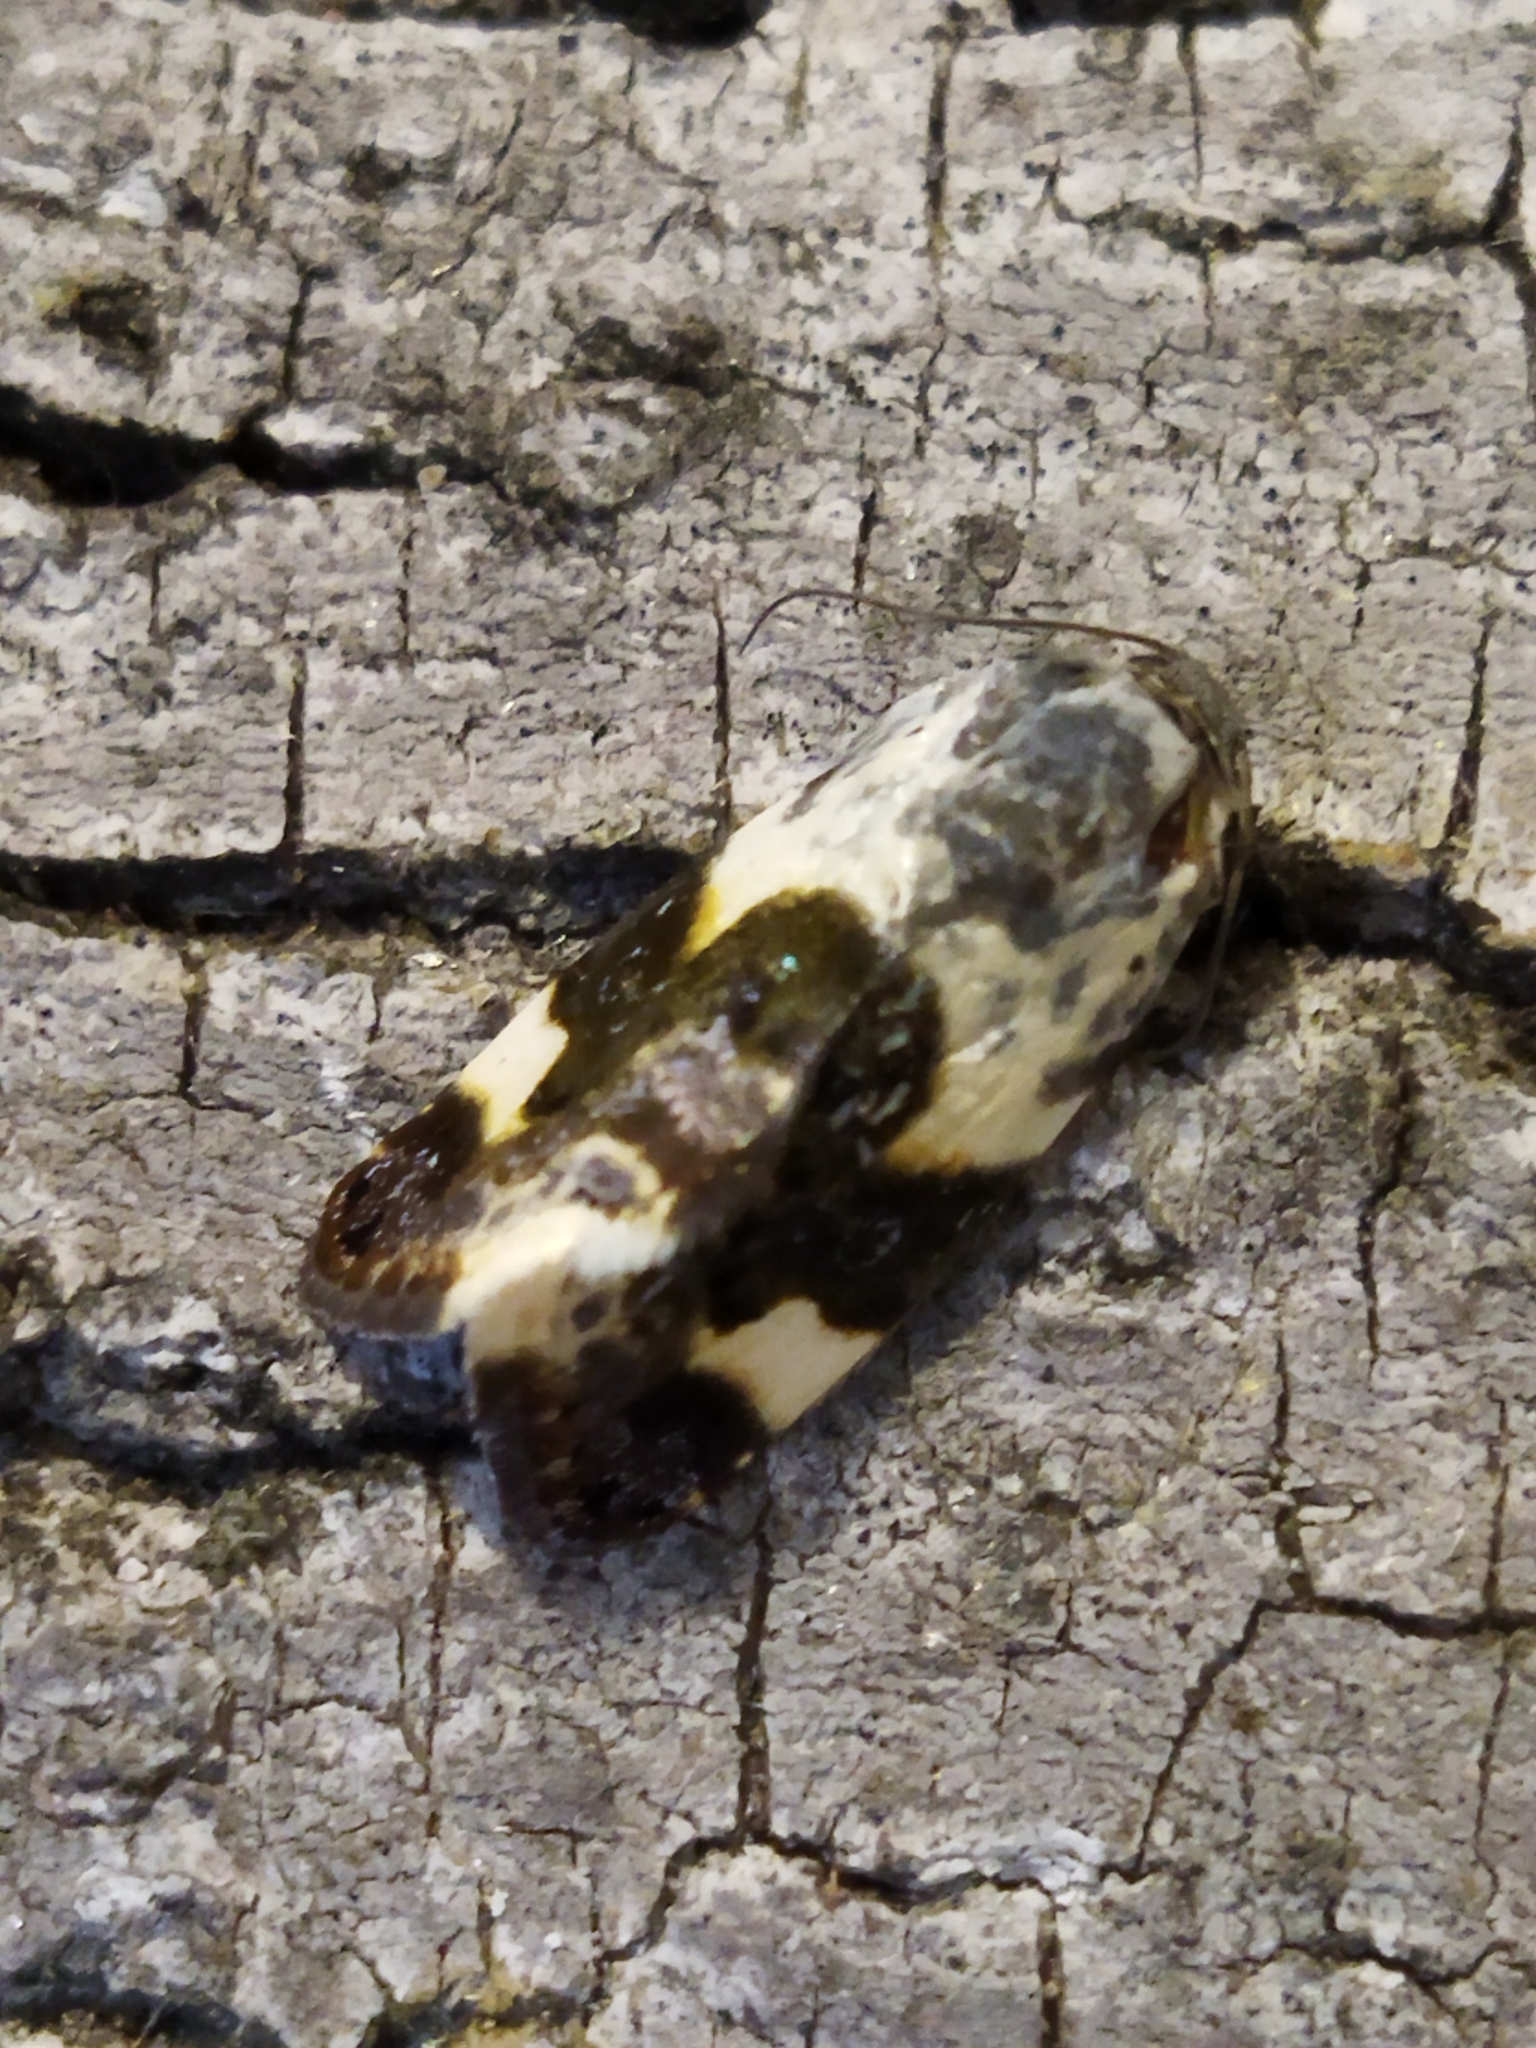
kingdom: Animalia
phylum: Arthropoda
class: Insecta
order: Lepidoptera
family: Noctuidae
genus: Acontia
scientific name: Acontia lucida
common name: Pale shoulder
